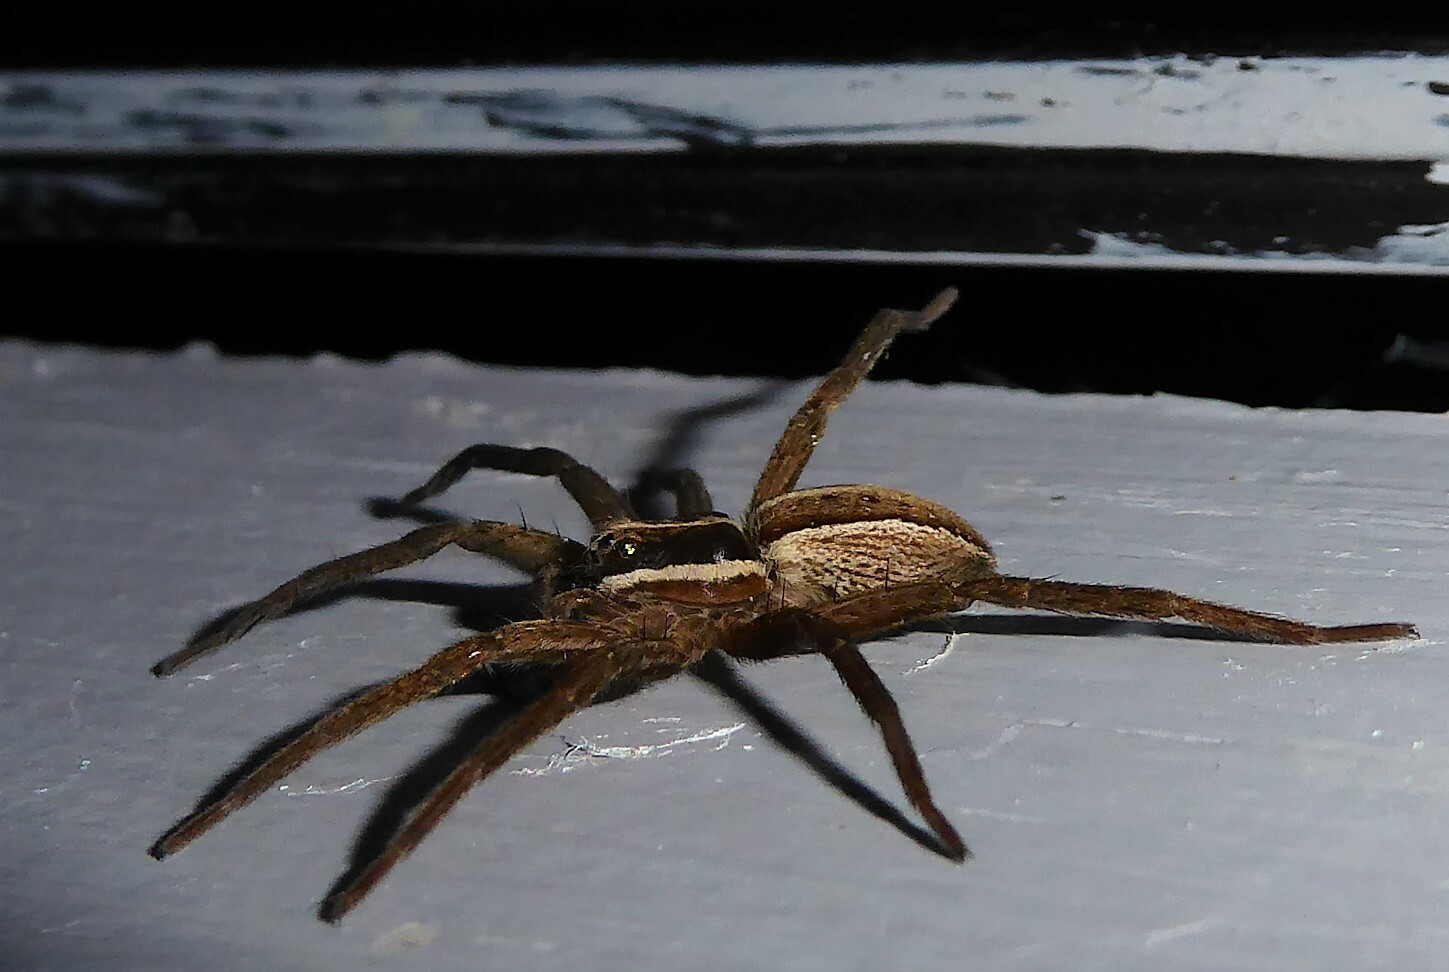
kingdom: Animalia
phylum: Arthropoda
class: Arachnida
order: Araneae
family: Pisauridae
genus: Dolomedes
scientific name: Dolomedes minor
